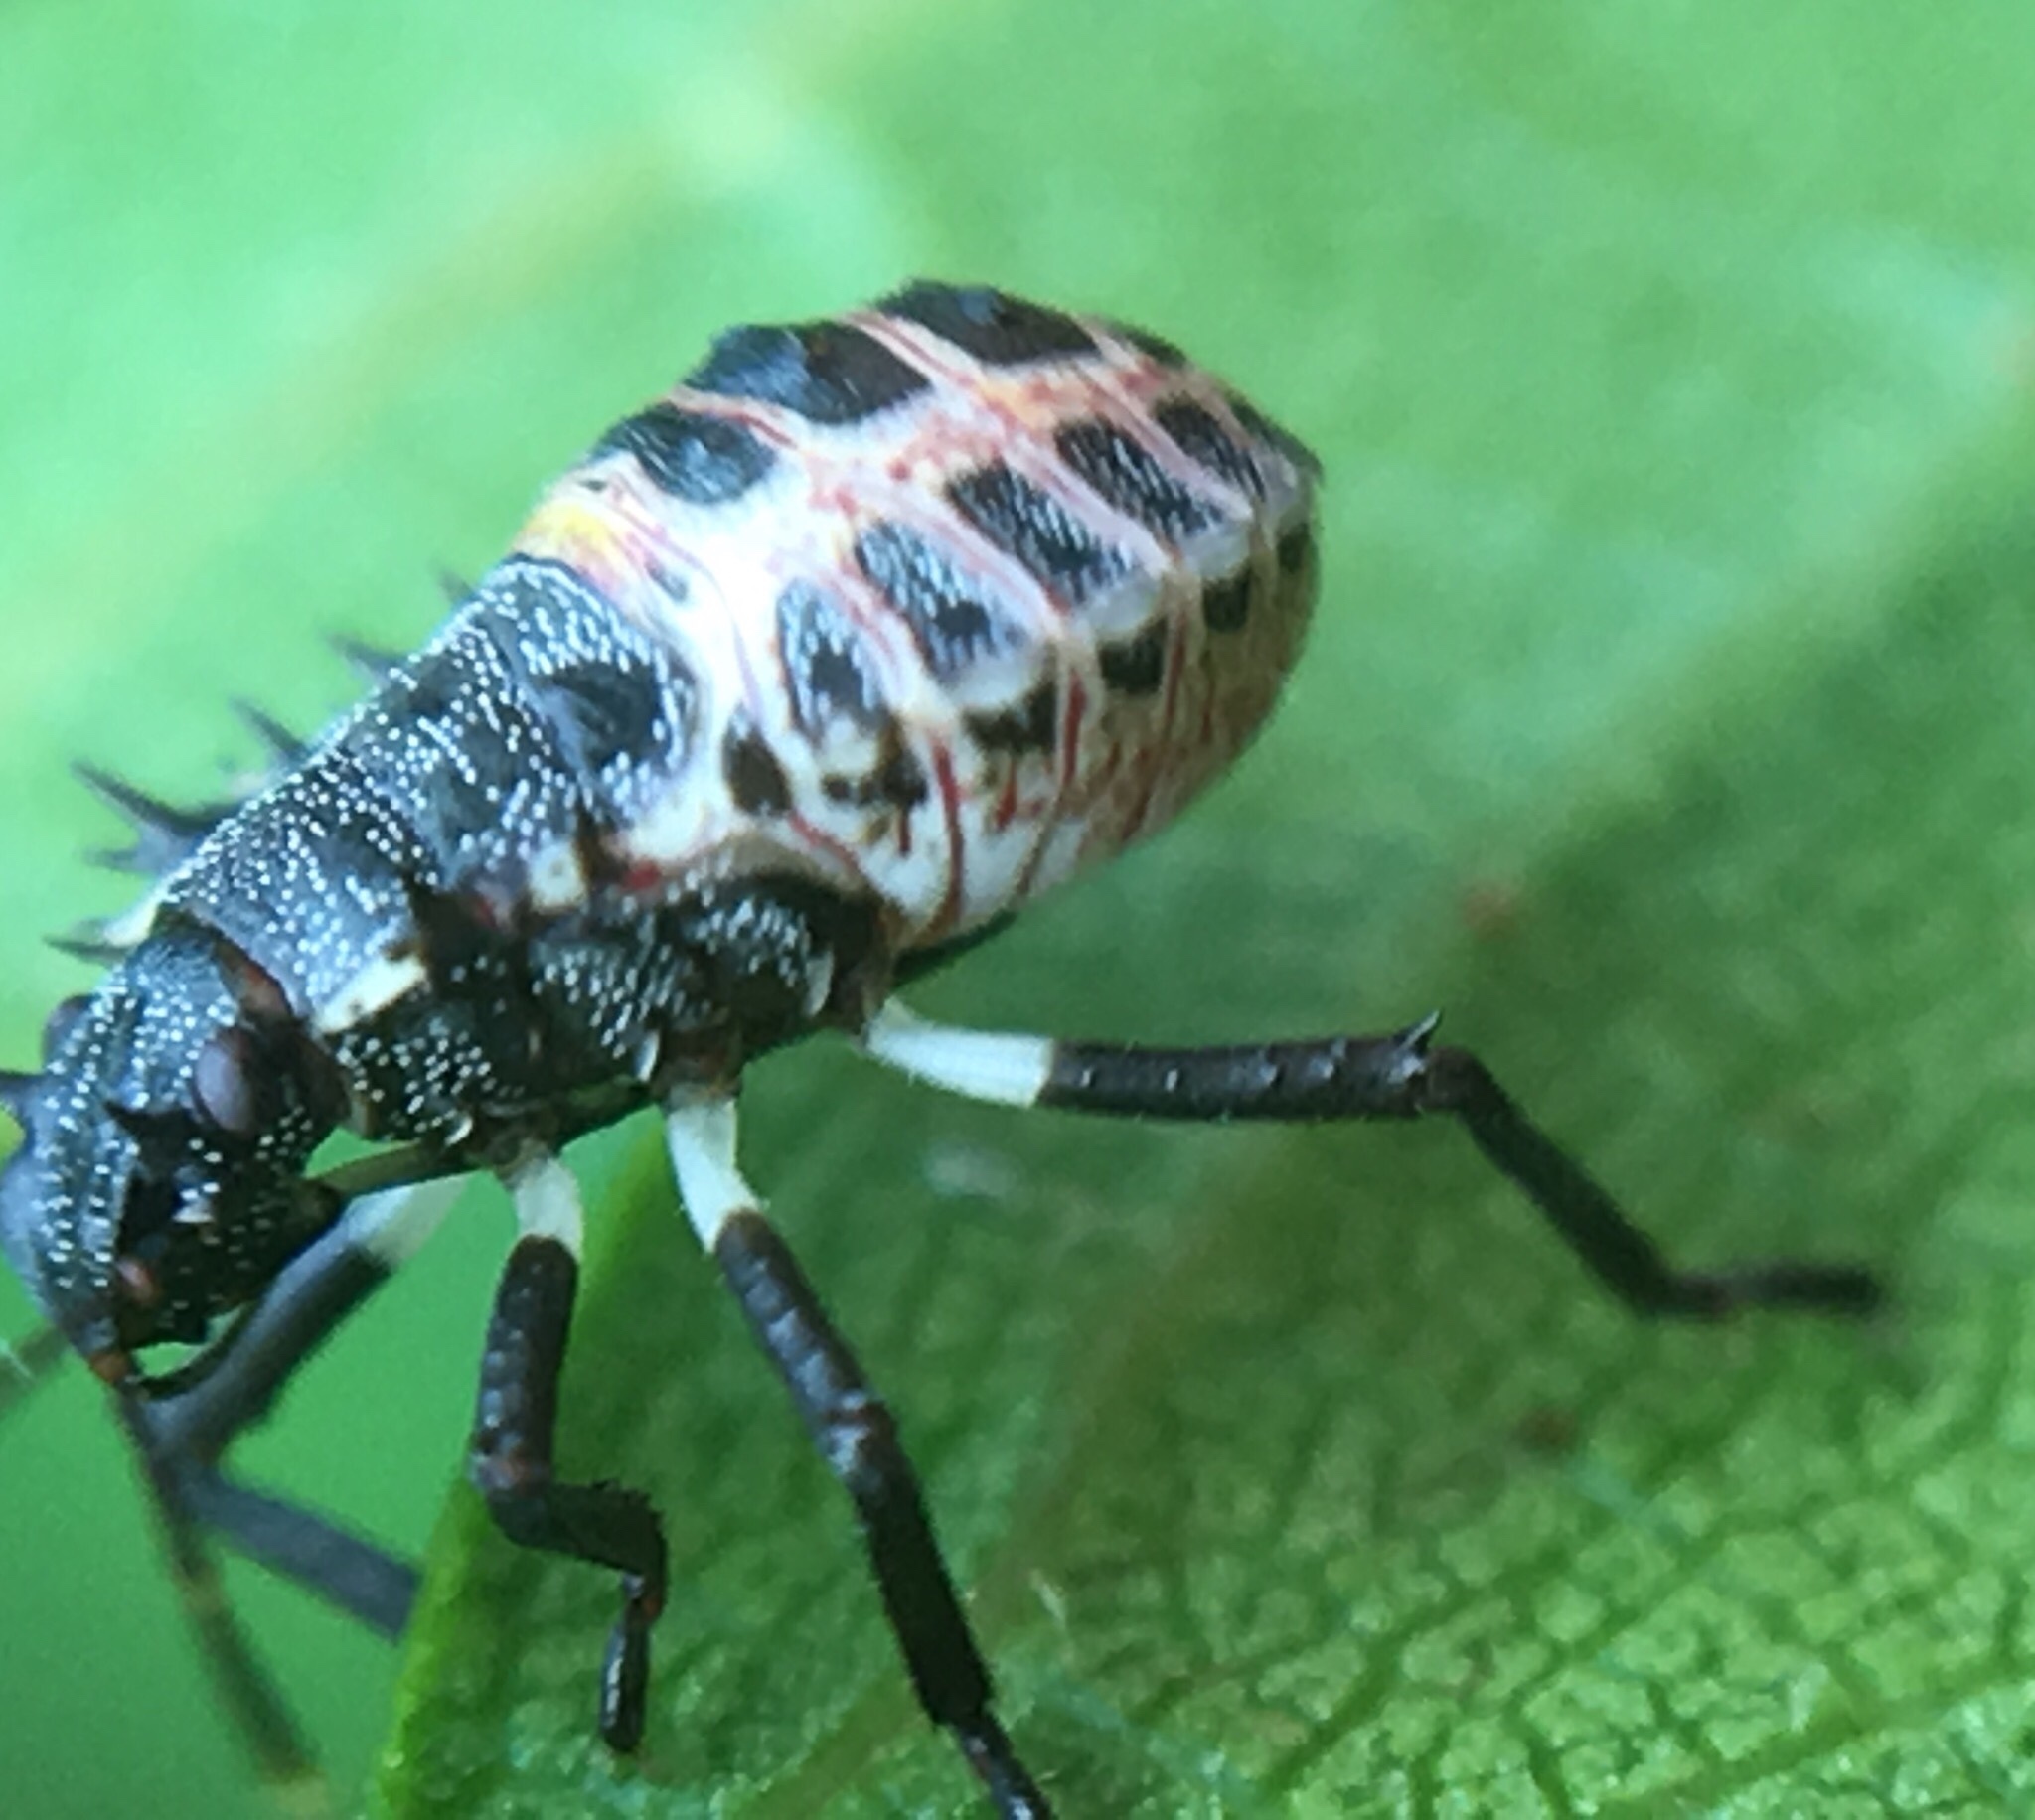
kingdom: Animalia
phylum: Arthropoda
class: Insecta
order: Hemiptera
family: Pentatomidae
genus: Halyomorpha
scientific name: Halyomorpha halys
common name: Brown marmorated stink bug
